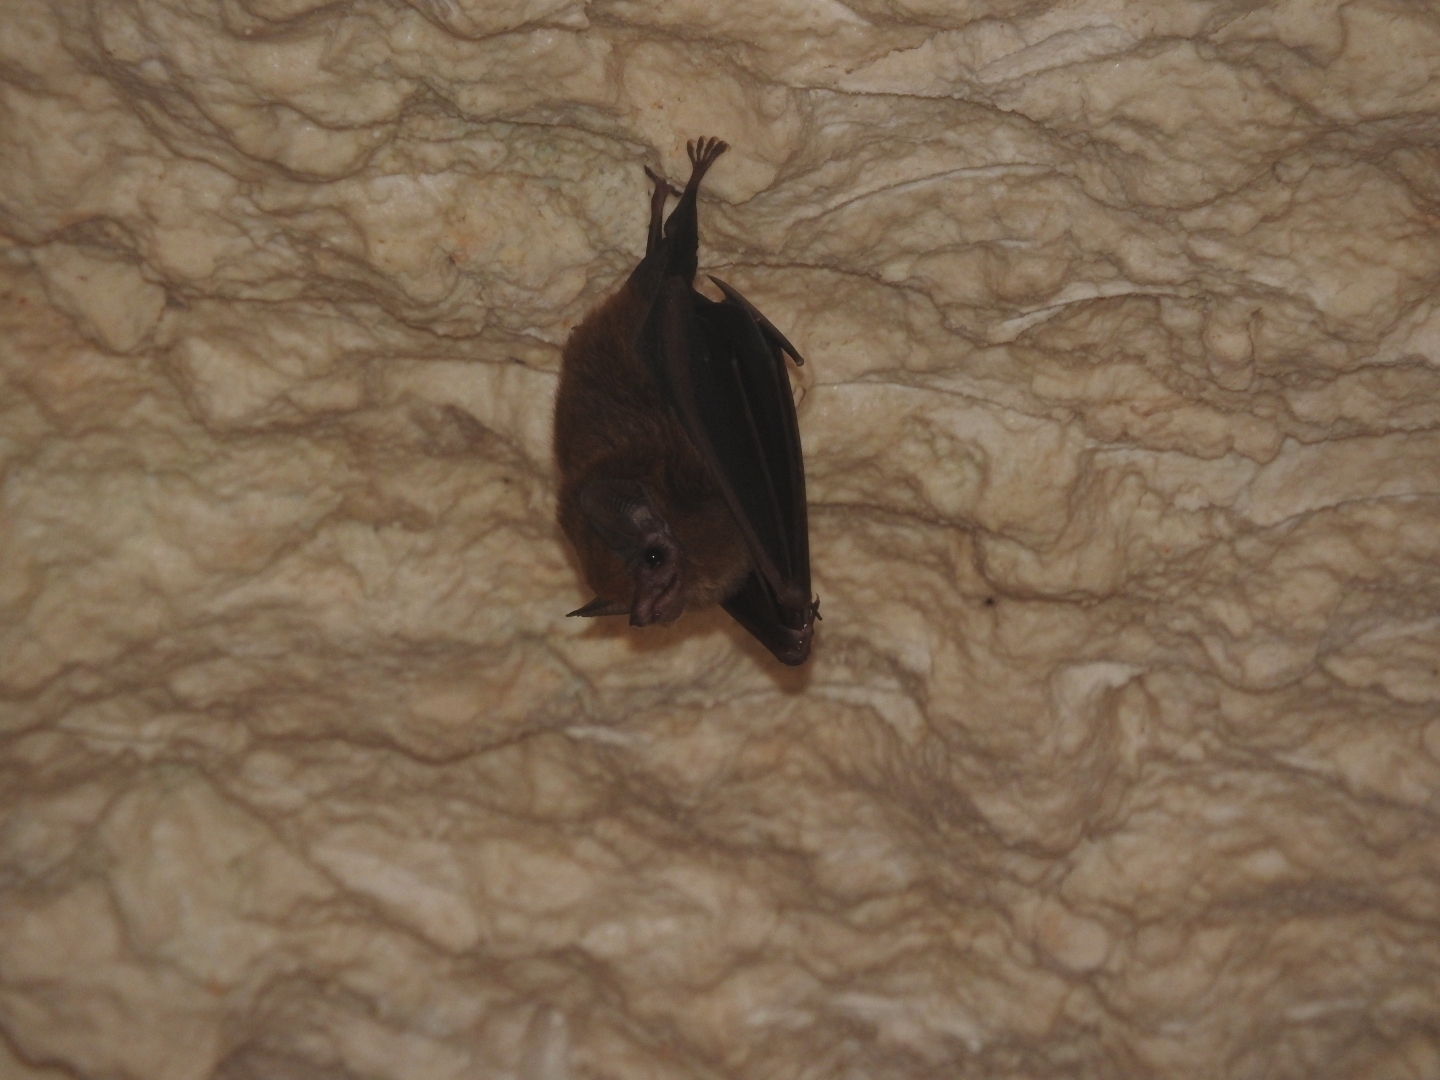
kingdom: Animalia
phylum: Chordata
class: Mammalia
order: Chiroptera
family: Emballonuridae
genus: Peropteryx
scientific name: Peropteryx macrotis
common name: Lesser dog-like bat
